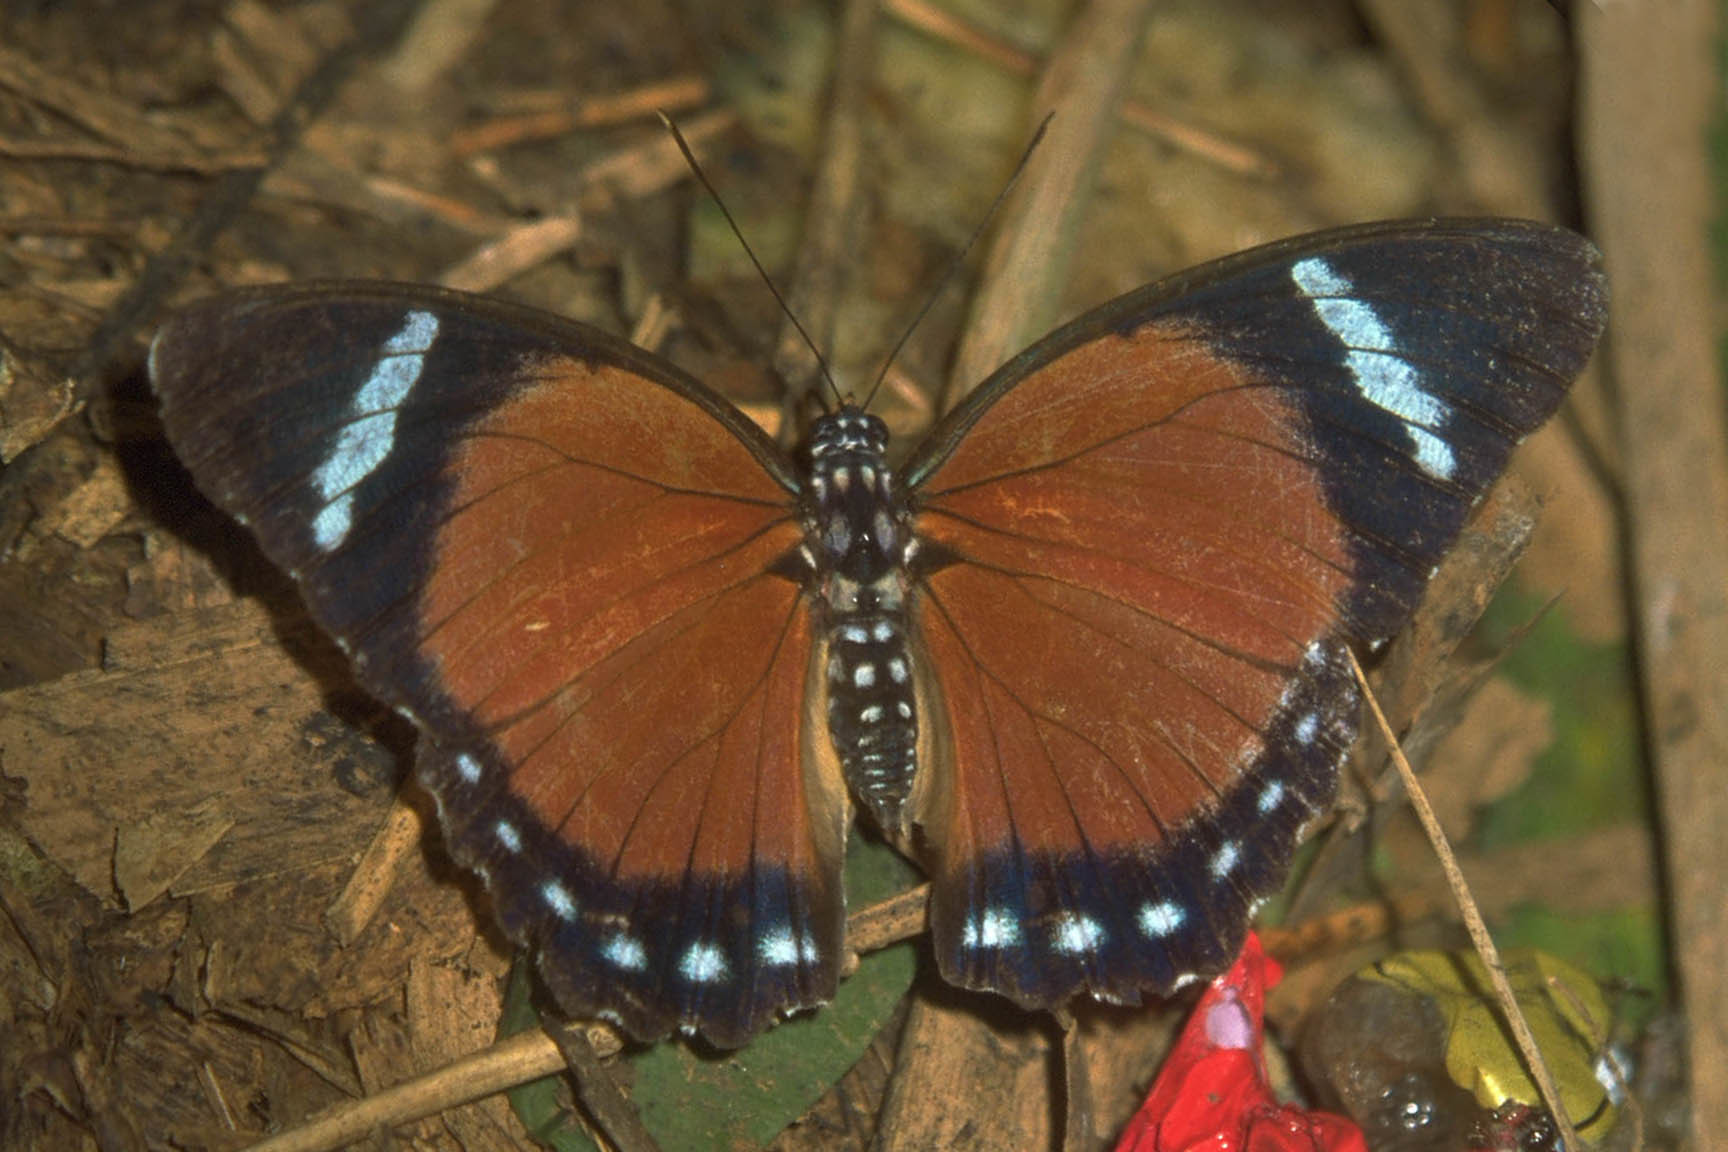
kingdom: Animalia
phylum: Arthropoda
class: Insecta
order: Lepidoptera
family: Nymphalidae
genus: Euphaedra
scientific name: Euphaedra eleus
